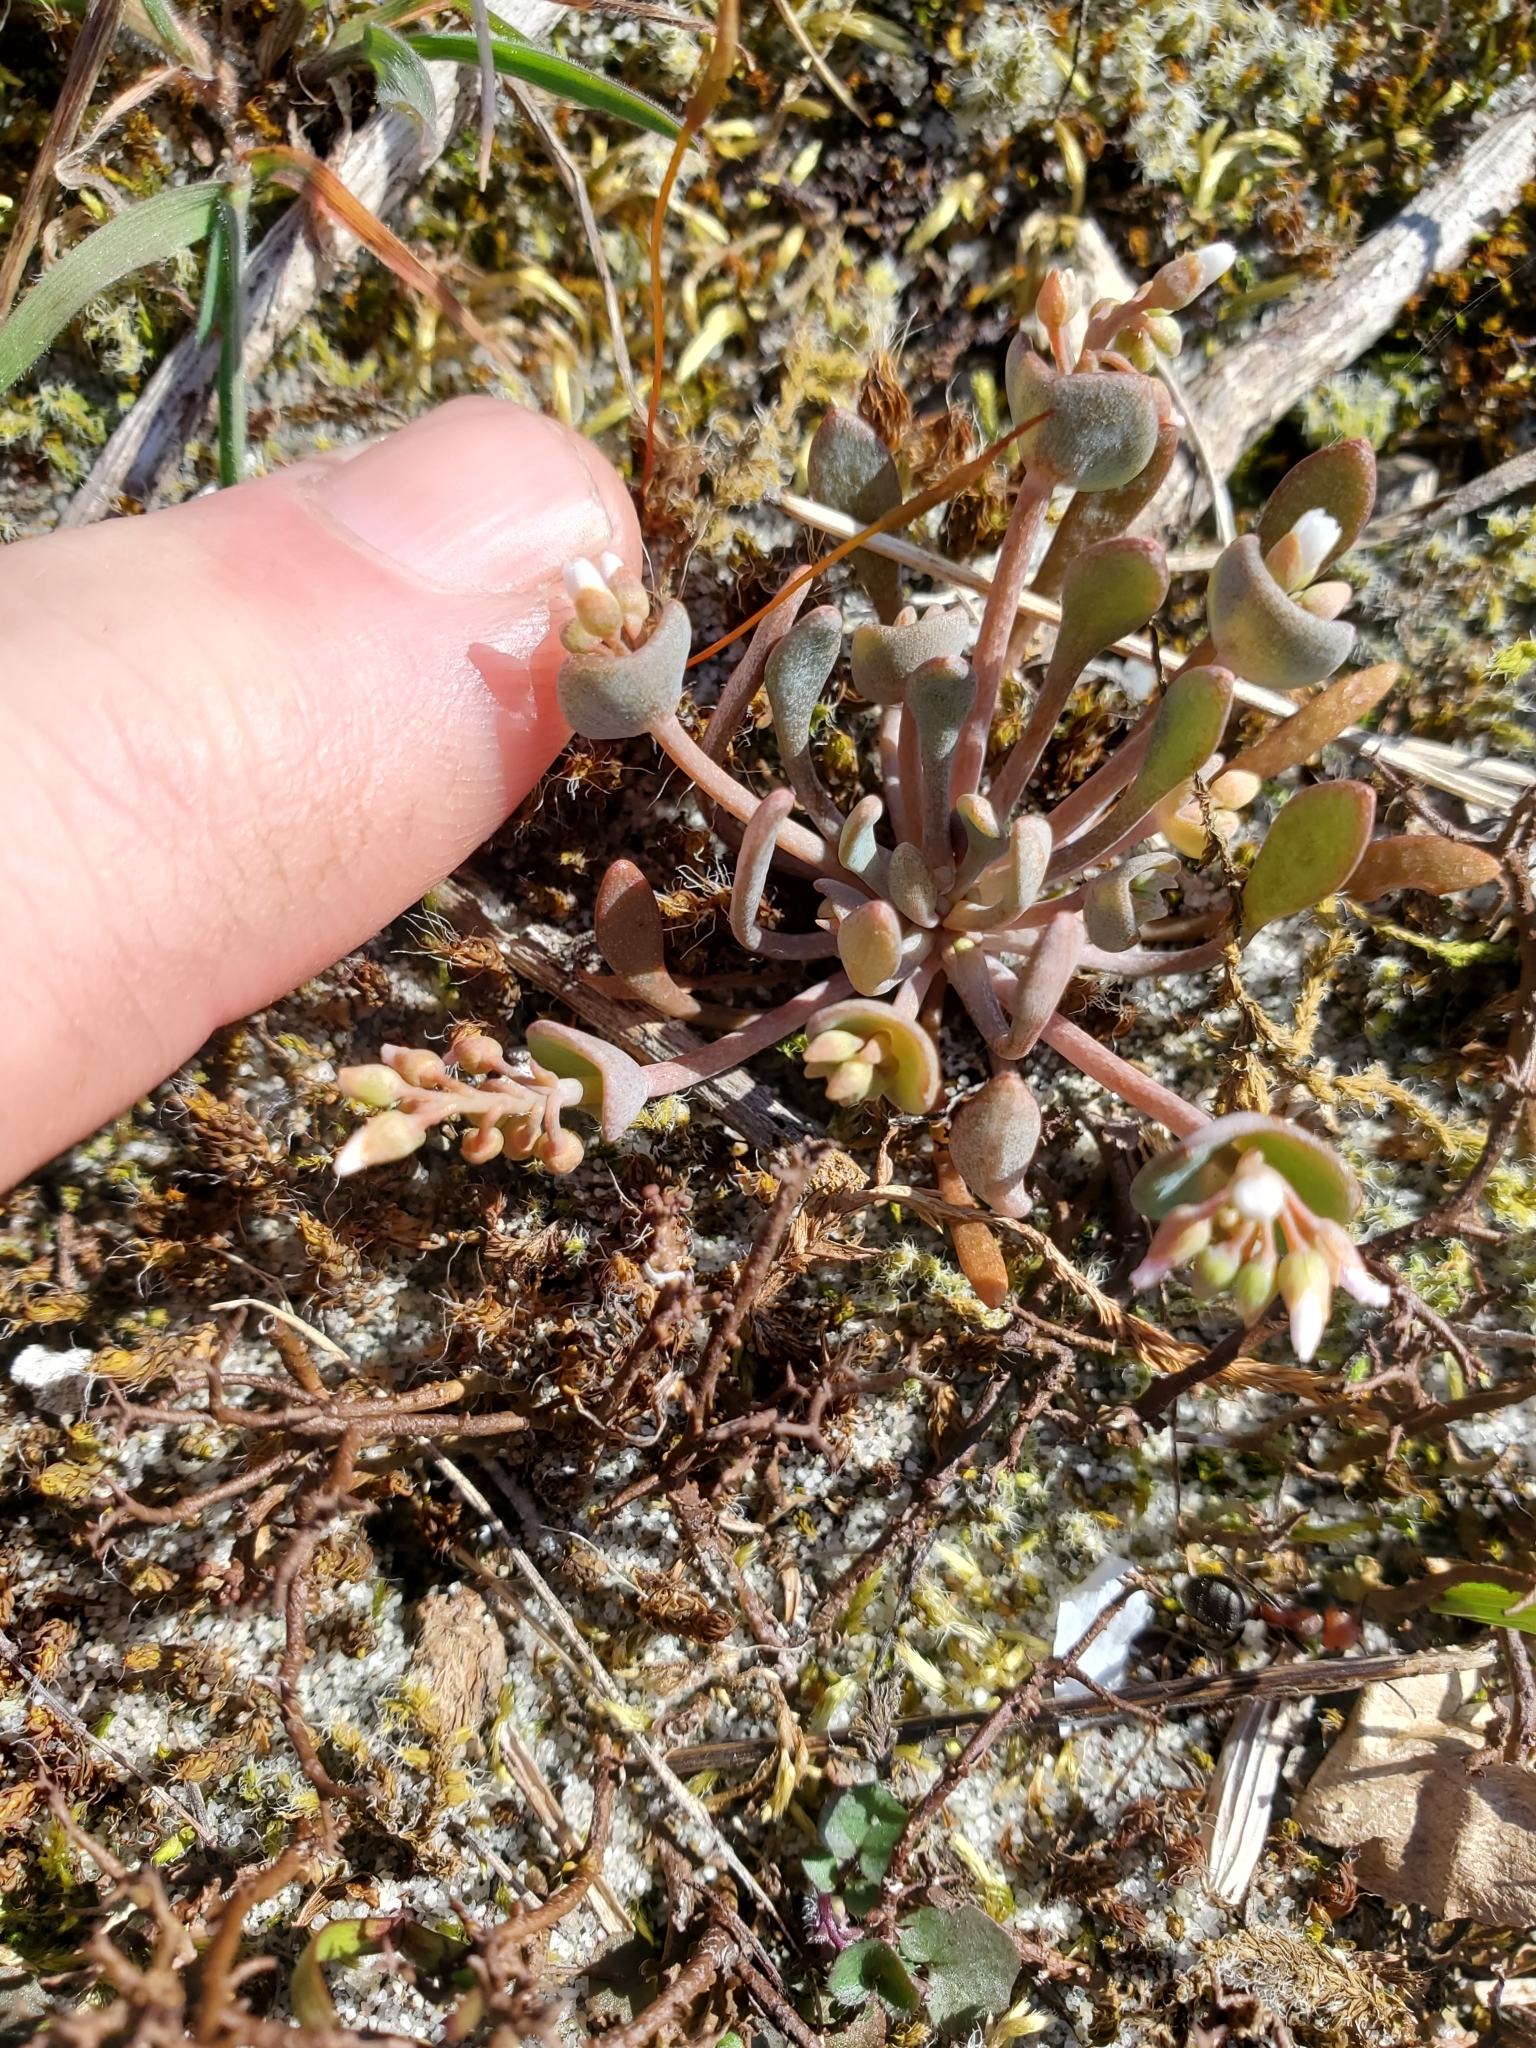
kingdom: Plantae
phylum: Tracheophyta
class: Magnoliopsida
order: Caryophyllales
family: Montiaceae
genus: Claytonia
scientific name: Claytonia exigua
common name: Pale spring beauty
